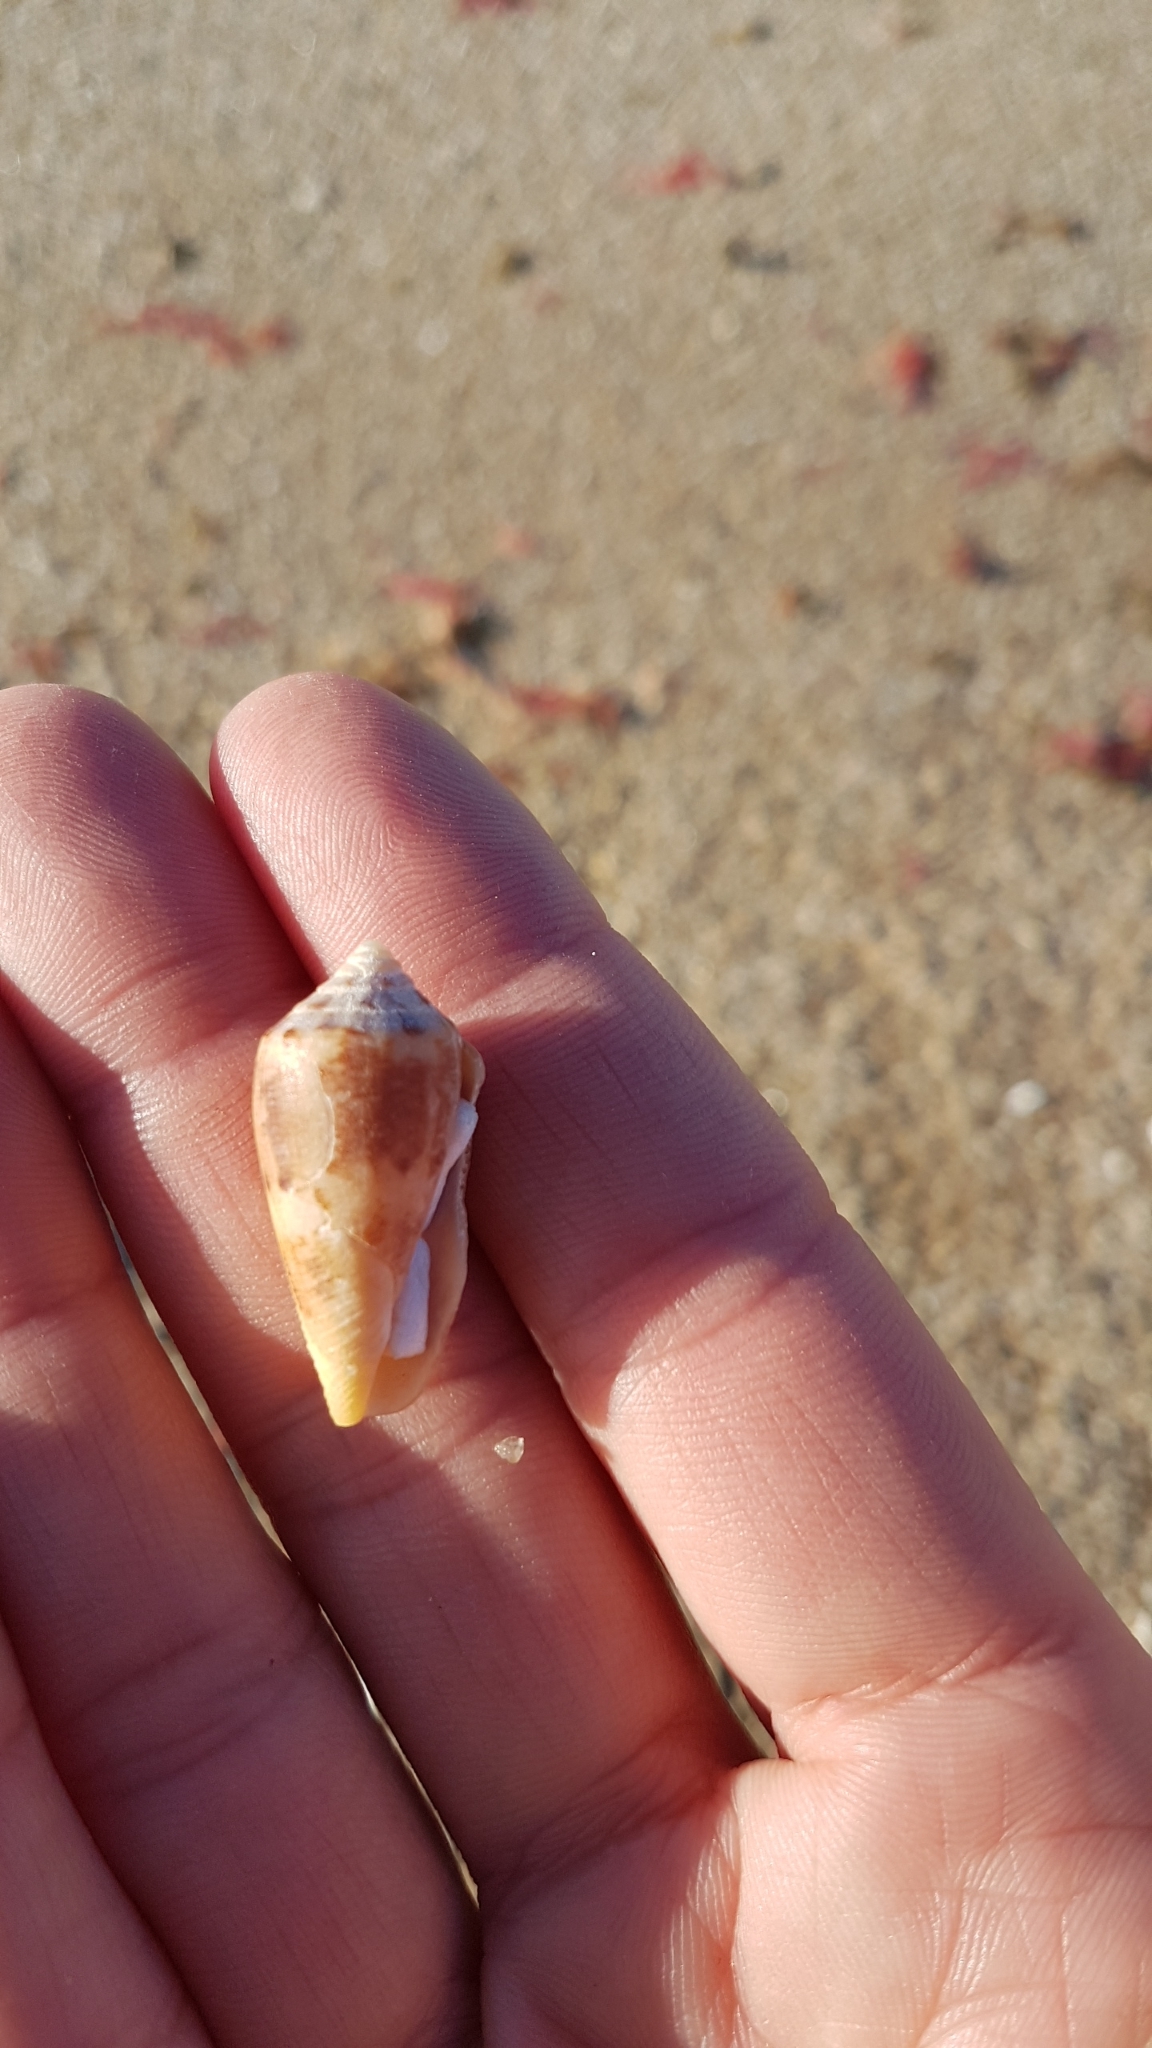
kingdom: Animalia
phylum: Mollusca
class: Gastropoda
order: Neogastropoda
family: Conidae
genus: Conus
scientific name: Conus anemone
